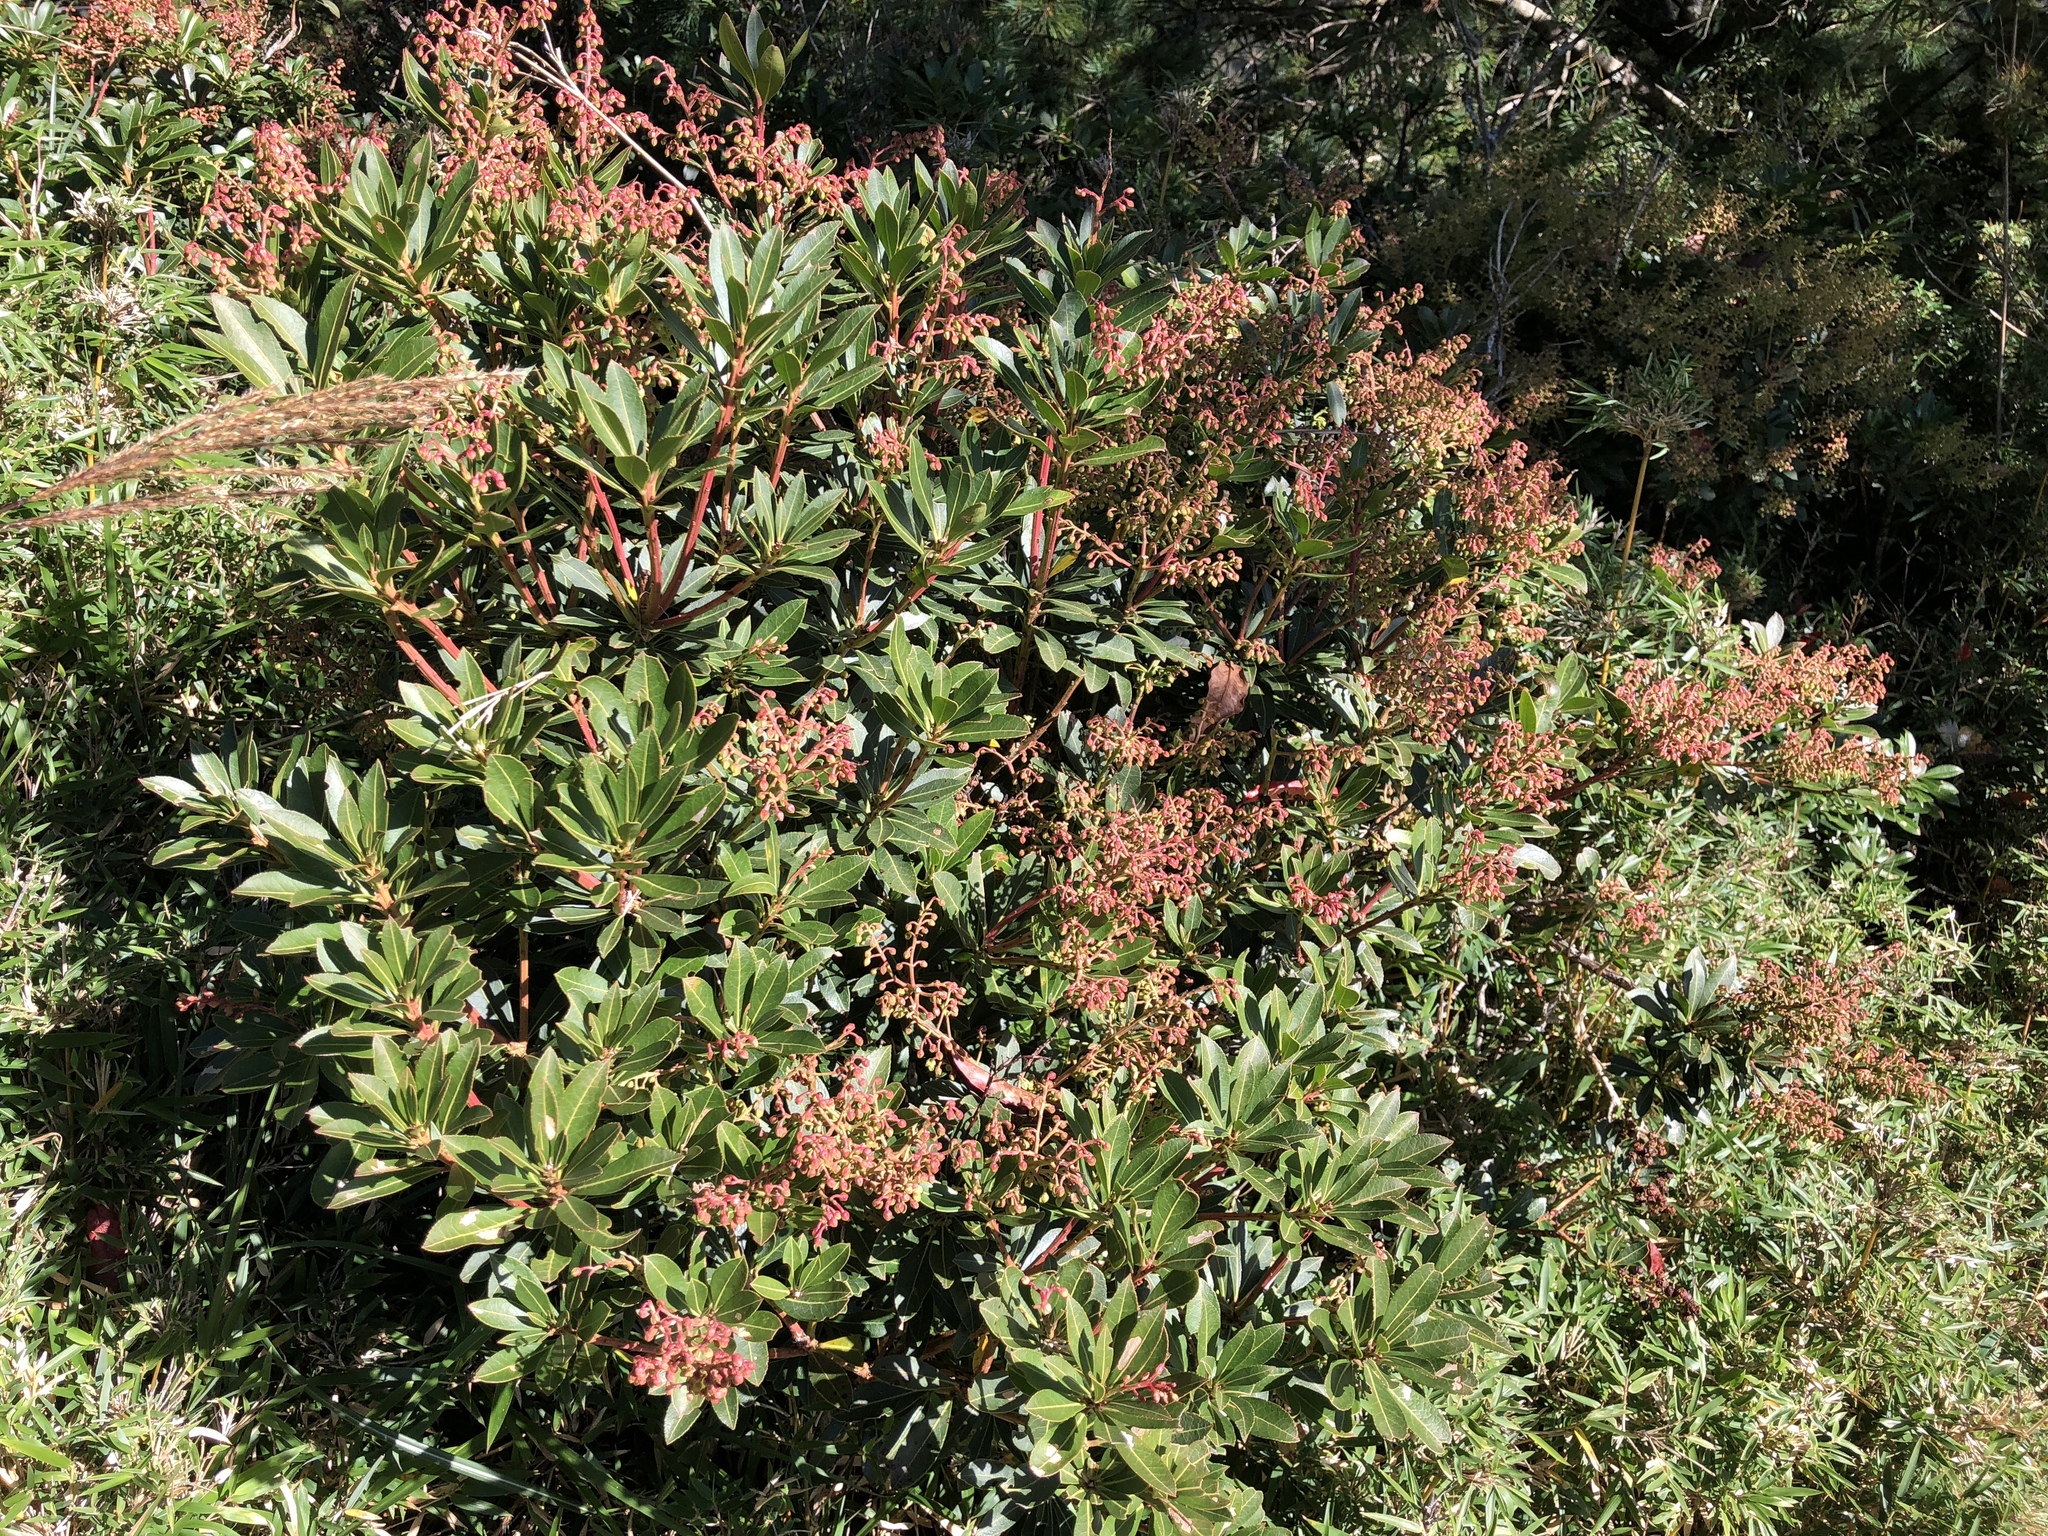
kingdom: Plantae
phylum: Tracheophyta
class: Magnoliopsida
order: Ericales
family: Ericaceae
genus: Pieris
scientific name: Pieris japonica
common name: Japanese pieris
